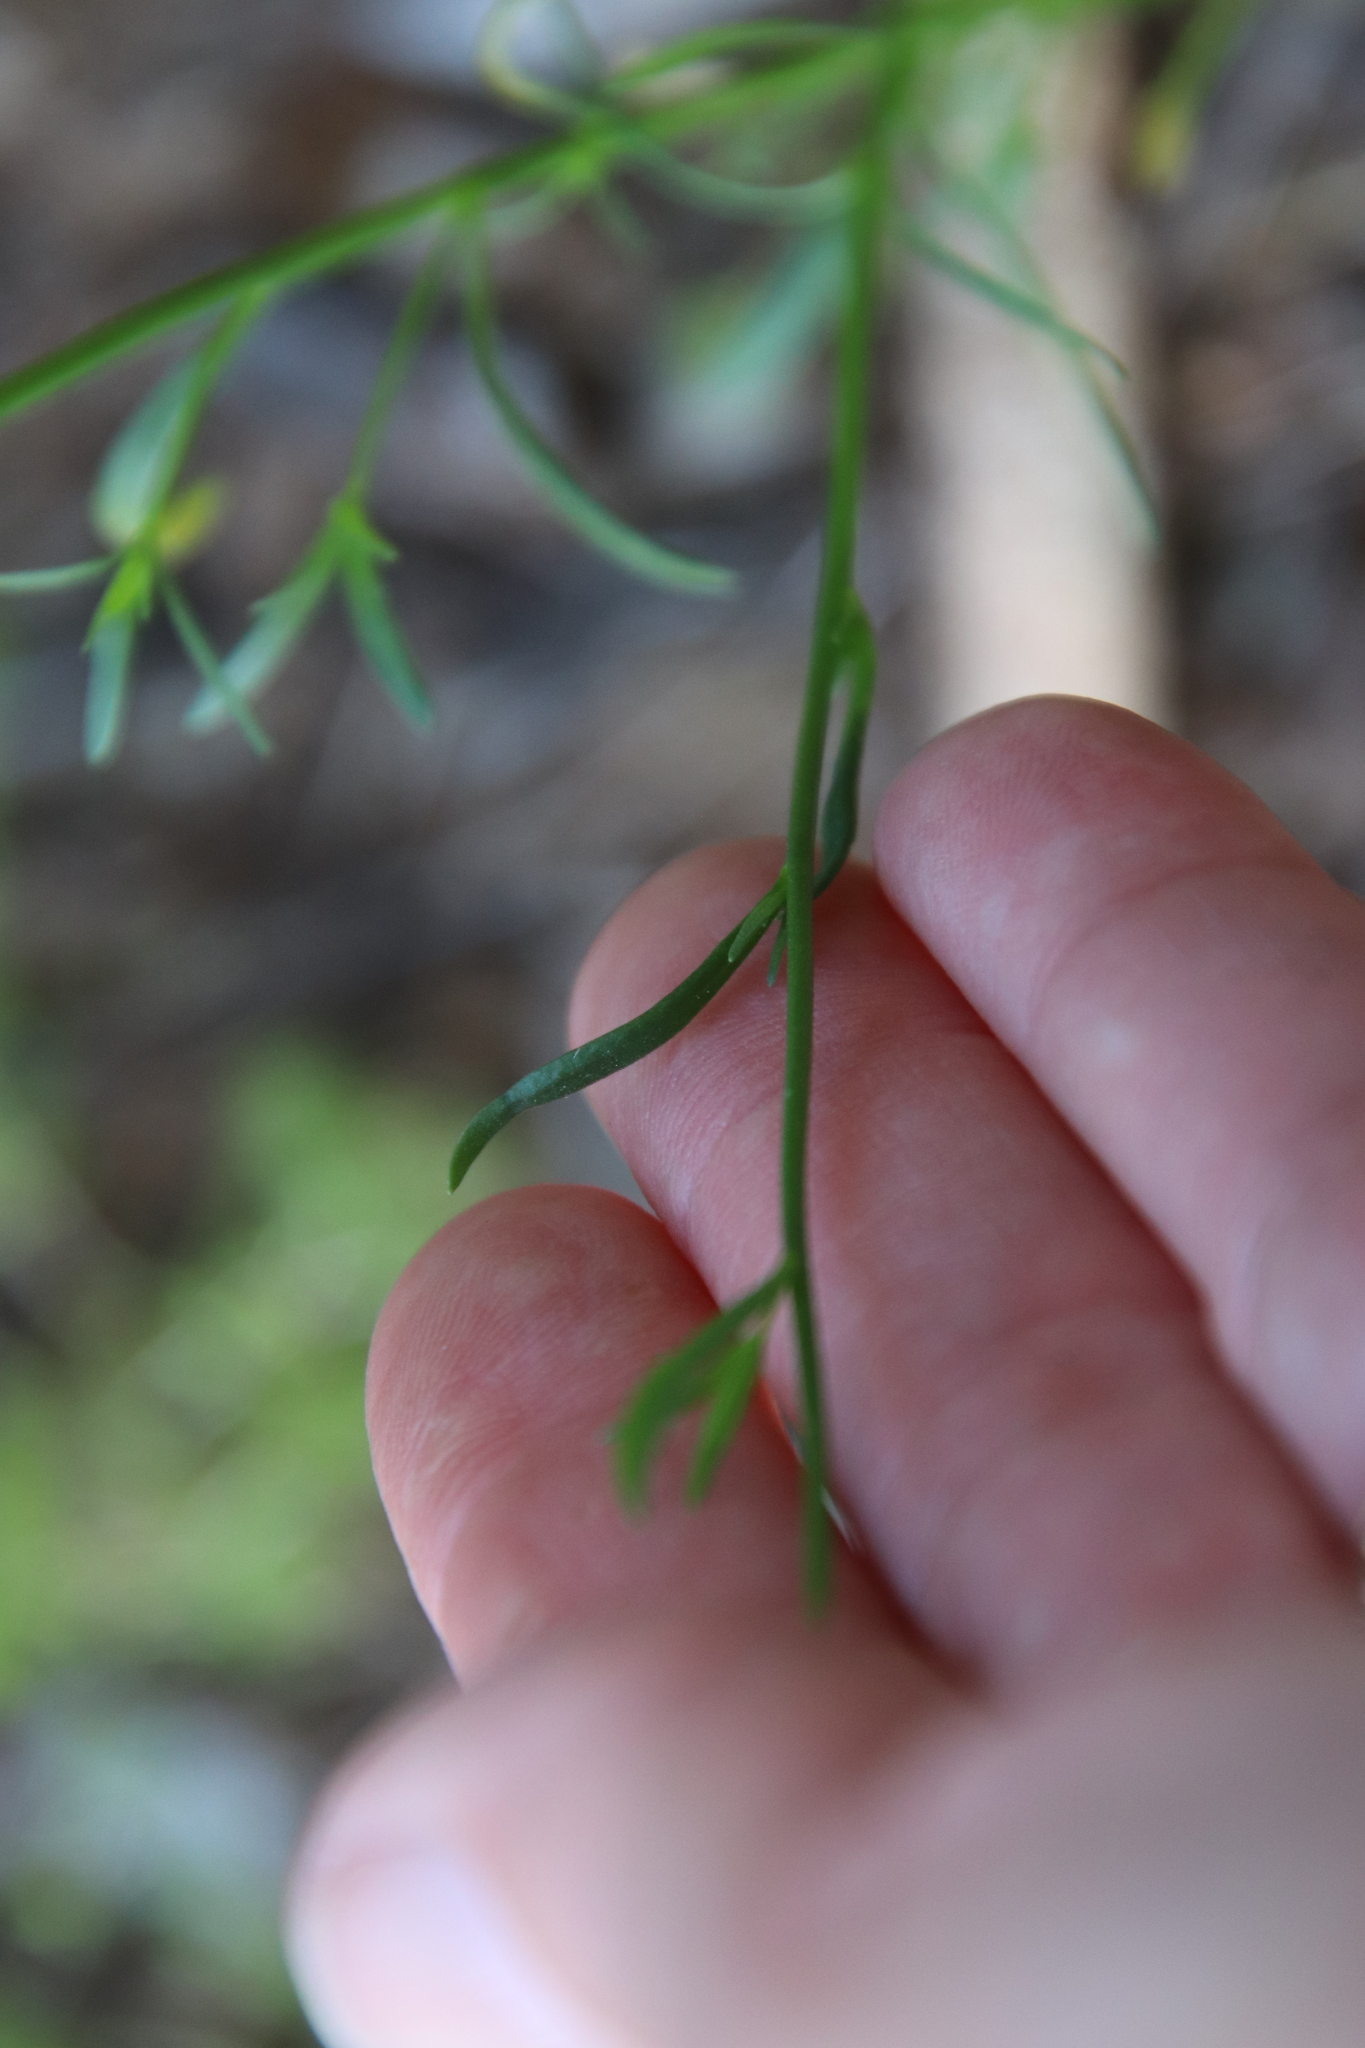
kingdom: Plantae
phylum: Tracheophyta
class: Magnoliopsida
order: Lamiales
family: Plantaginaceae
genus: Nuttallanthus
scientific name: Nuttallanthus texanus
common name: Texas toadflax
